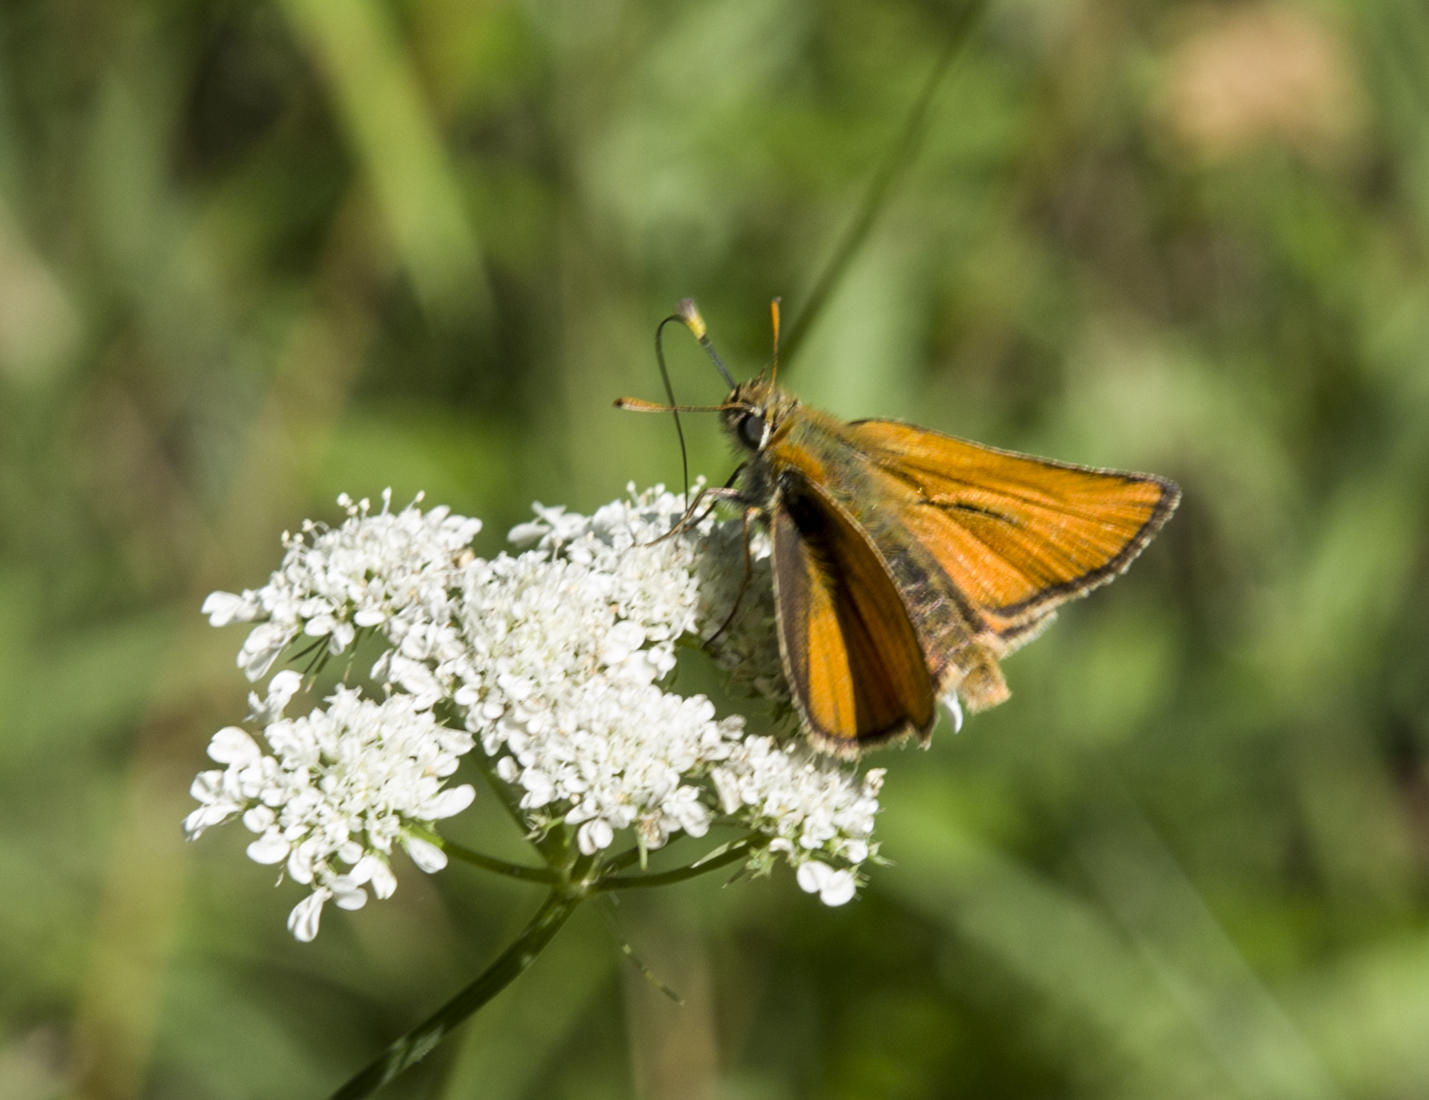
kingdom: Animalia
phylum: Arthropoda
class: Insecta
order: Lepidoptera
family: Hesperiidae
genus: Thymelicus
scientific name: Thymelicus sylvestris
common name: Small skipper
